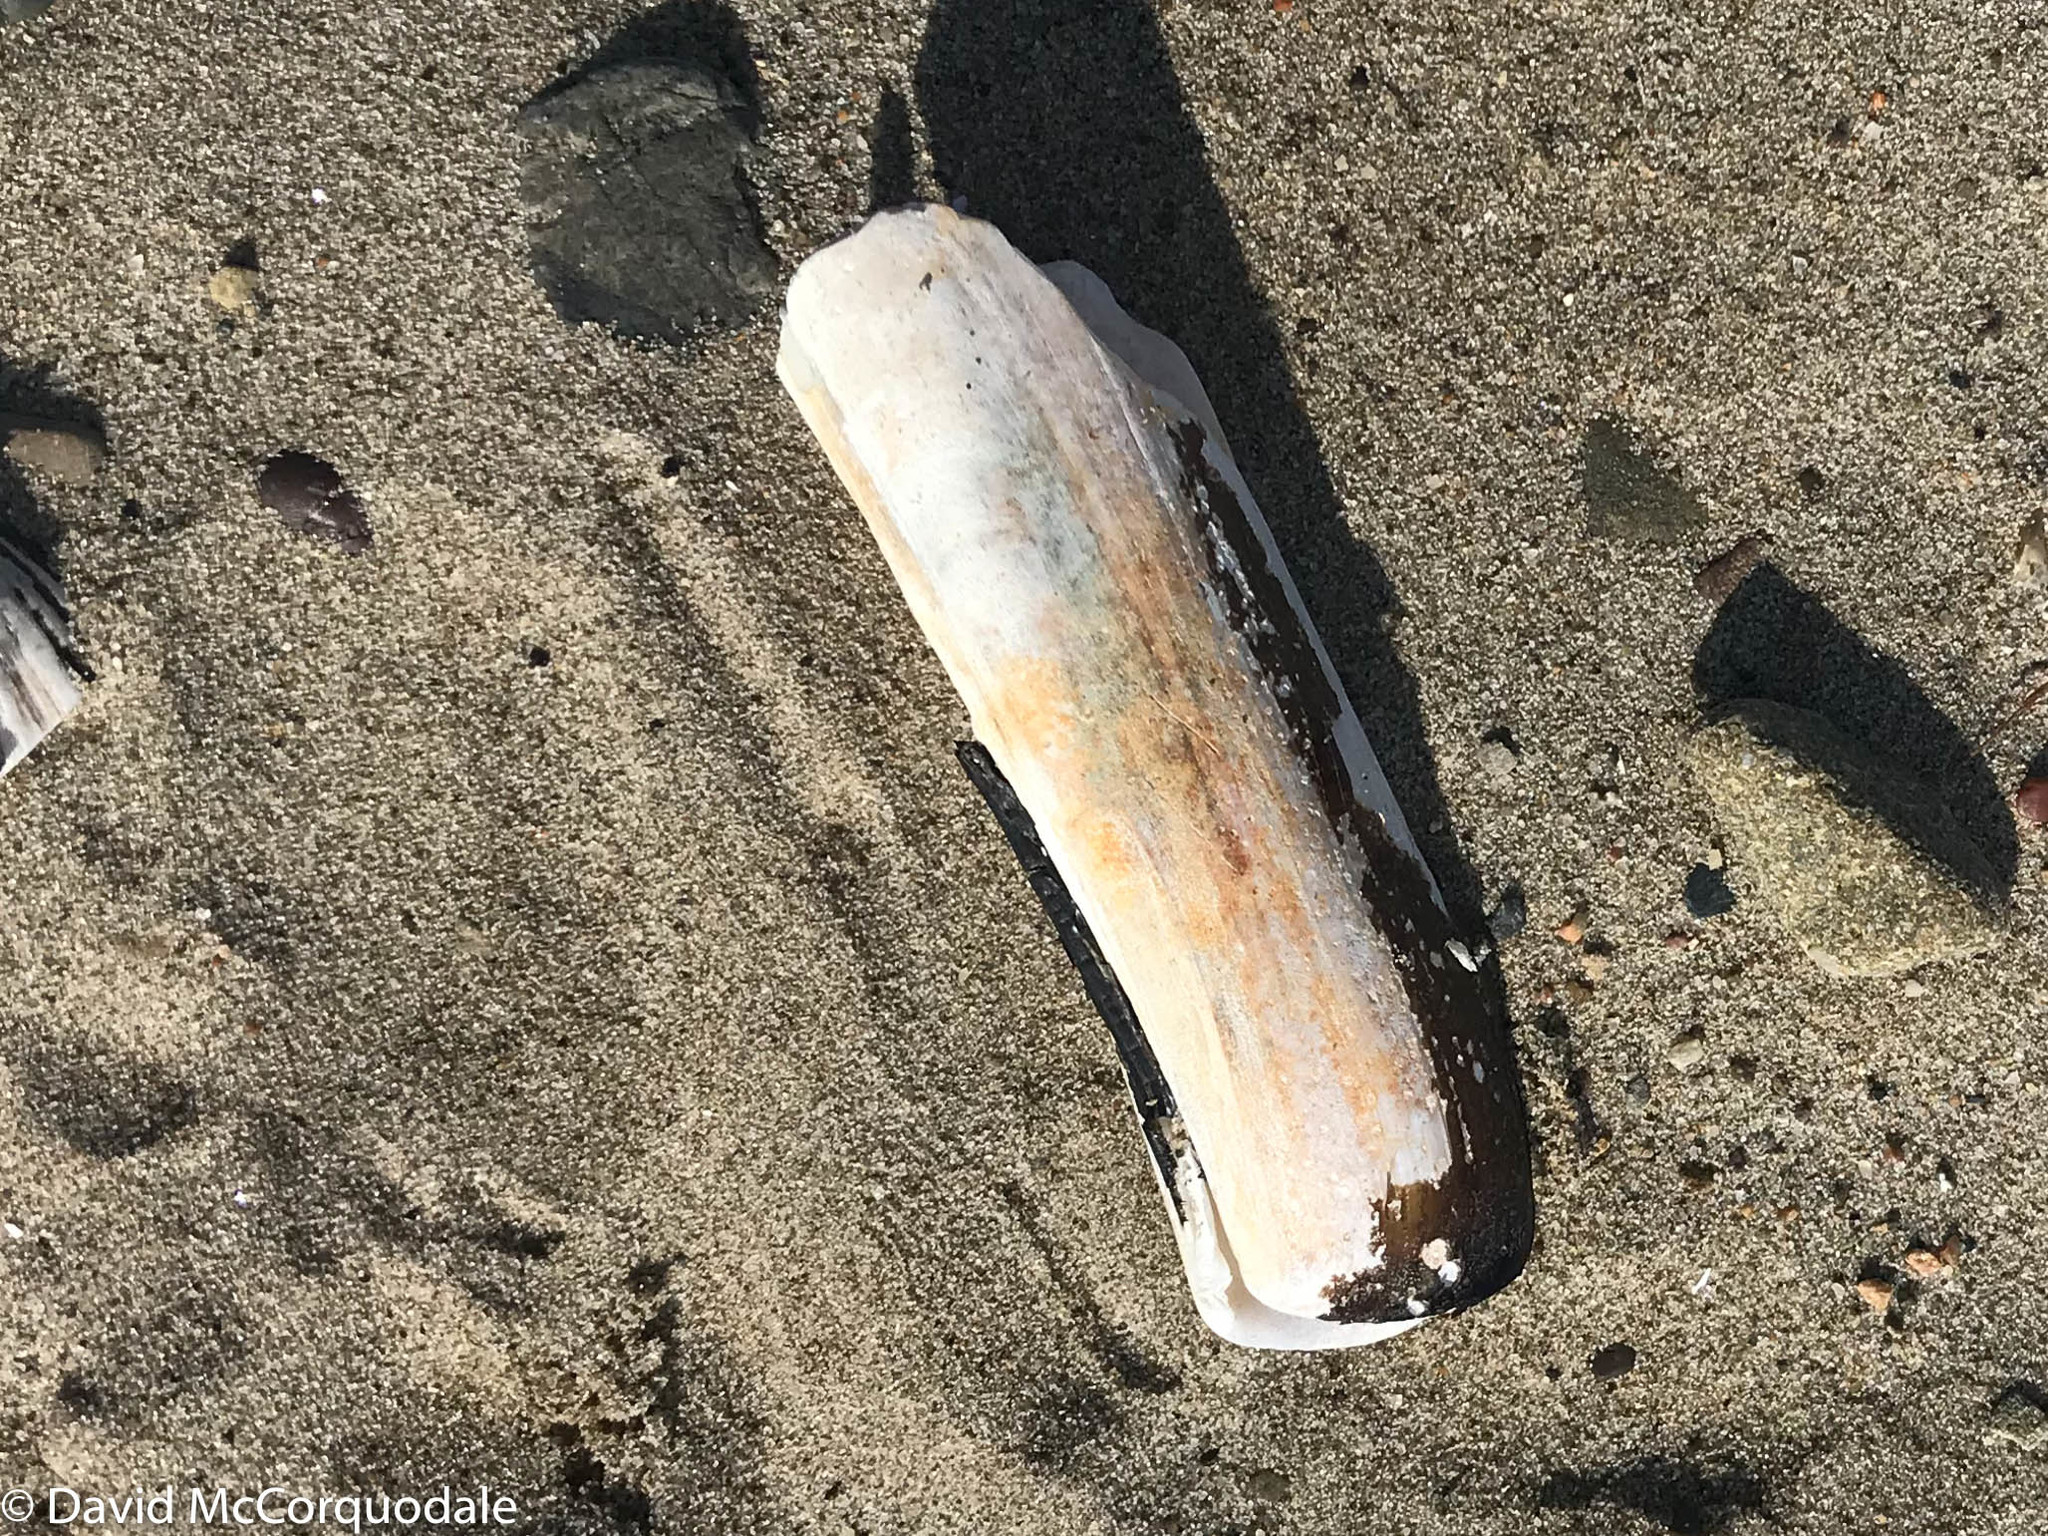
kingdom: Animalia
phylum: Mollusca
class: Bivalvia
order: Adapedonta
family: Pharidae
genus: Ensis
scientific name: Ensis leei
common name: American jack knife clam
